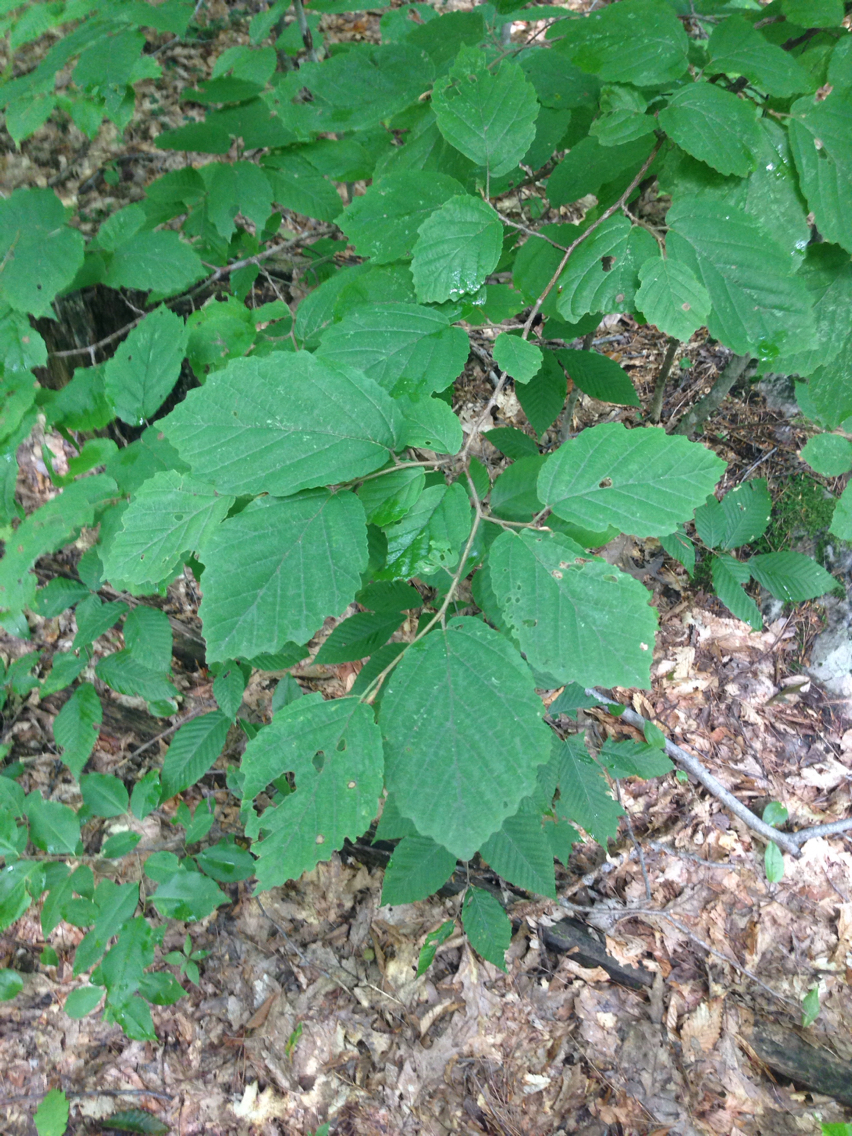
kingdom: Plantae
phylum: Tracheophyta
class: Magnoliopsida
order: Saxifragales
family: Hamamelidaceae
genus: Hamamelis
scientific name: Hamamelis virginiana
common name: Witch-hazel
